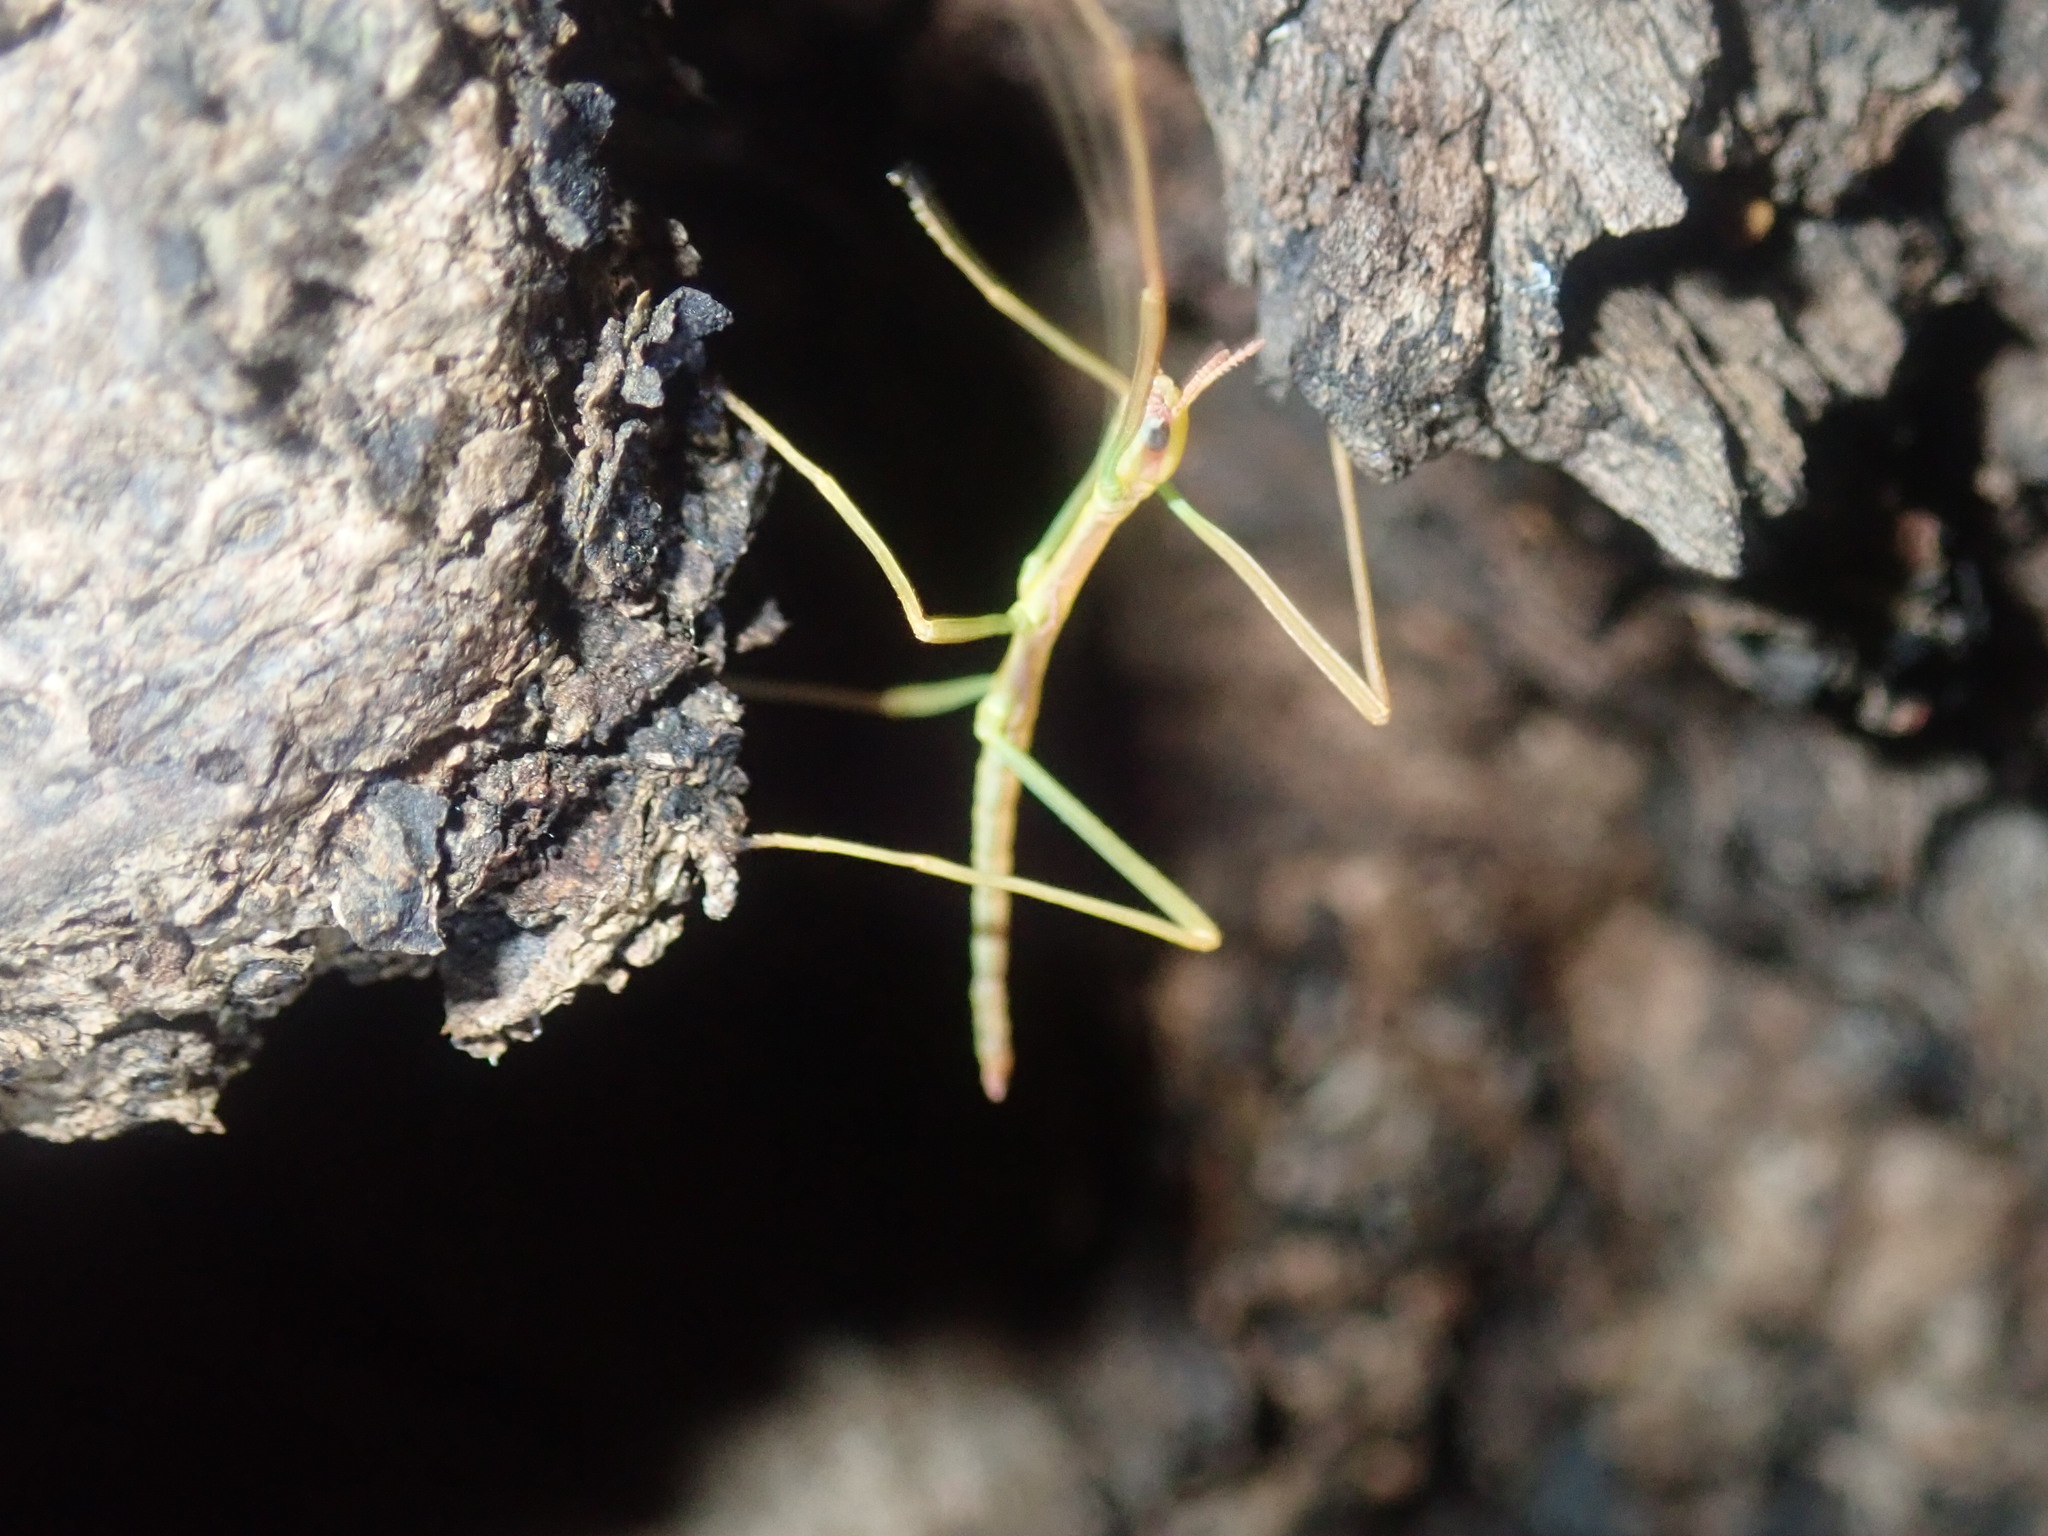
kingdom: Animalia
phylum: Arthropoda
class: Insecta
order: Phasmida
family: Phasmatidae
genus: Didymuria
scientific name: Didymuria violescens
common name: Spur-legged stick-insect
